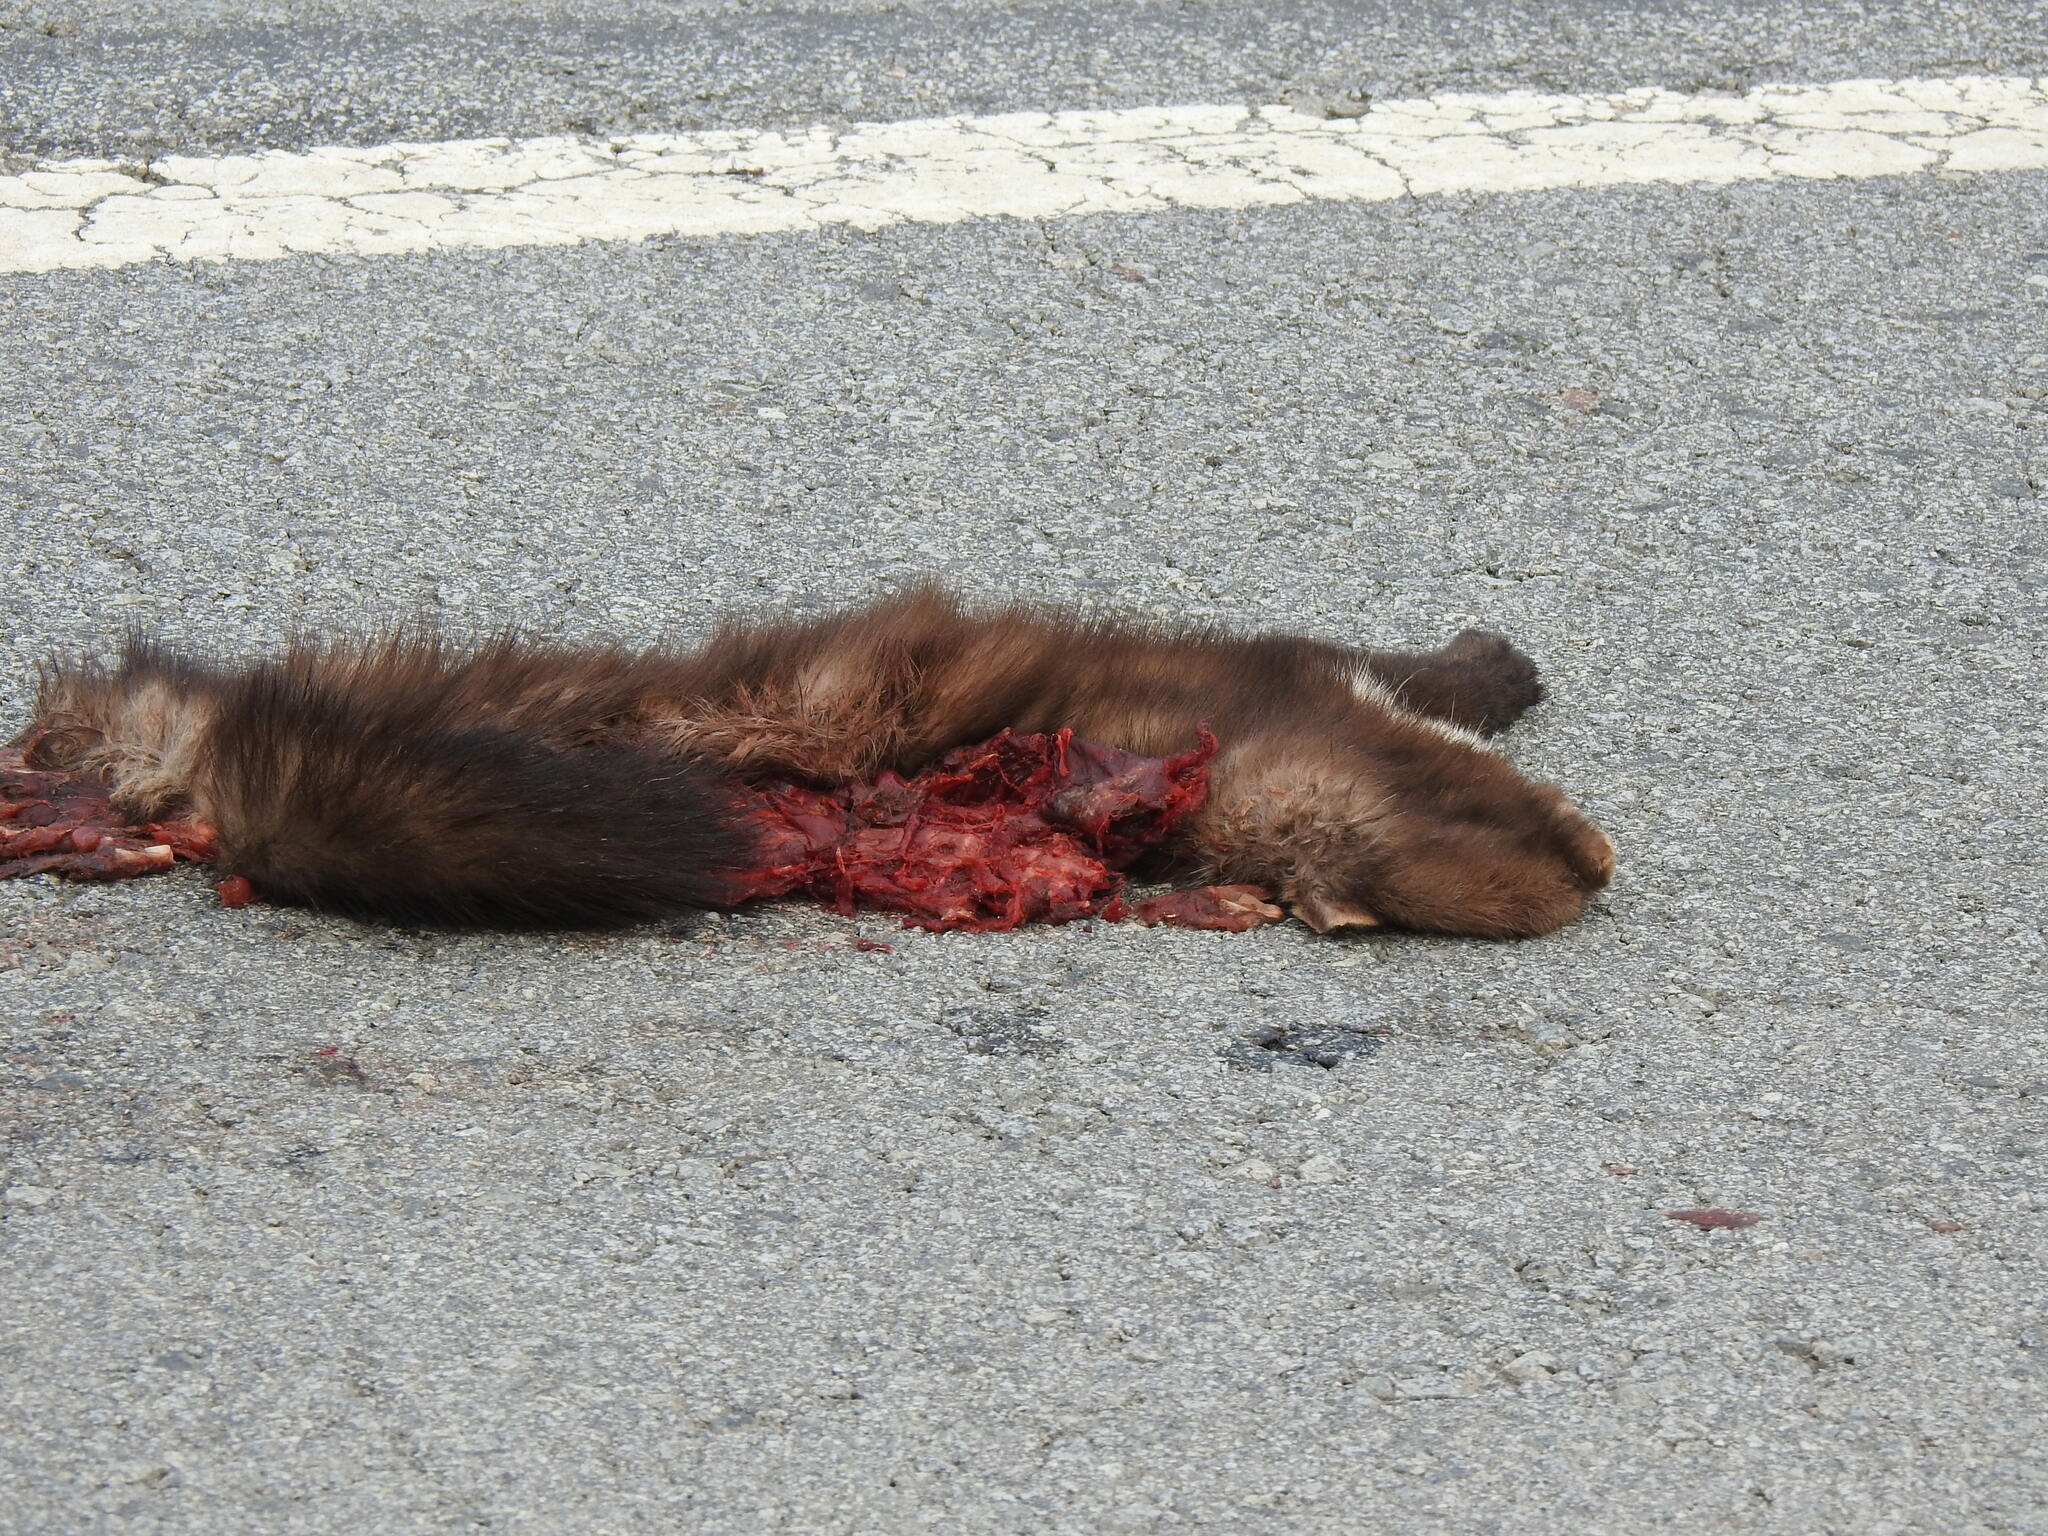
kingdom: Animalia
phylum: Chordata
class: Mammalia
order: Carnivora
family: Mustelidae
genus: Martes
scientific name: Martes foina
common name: Beech marten
